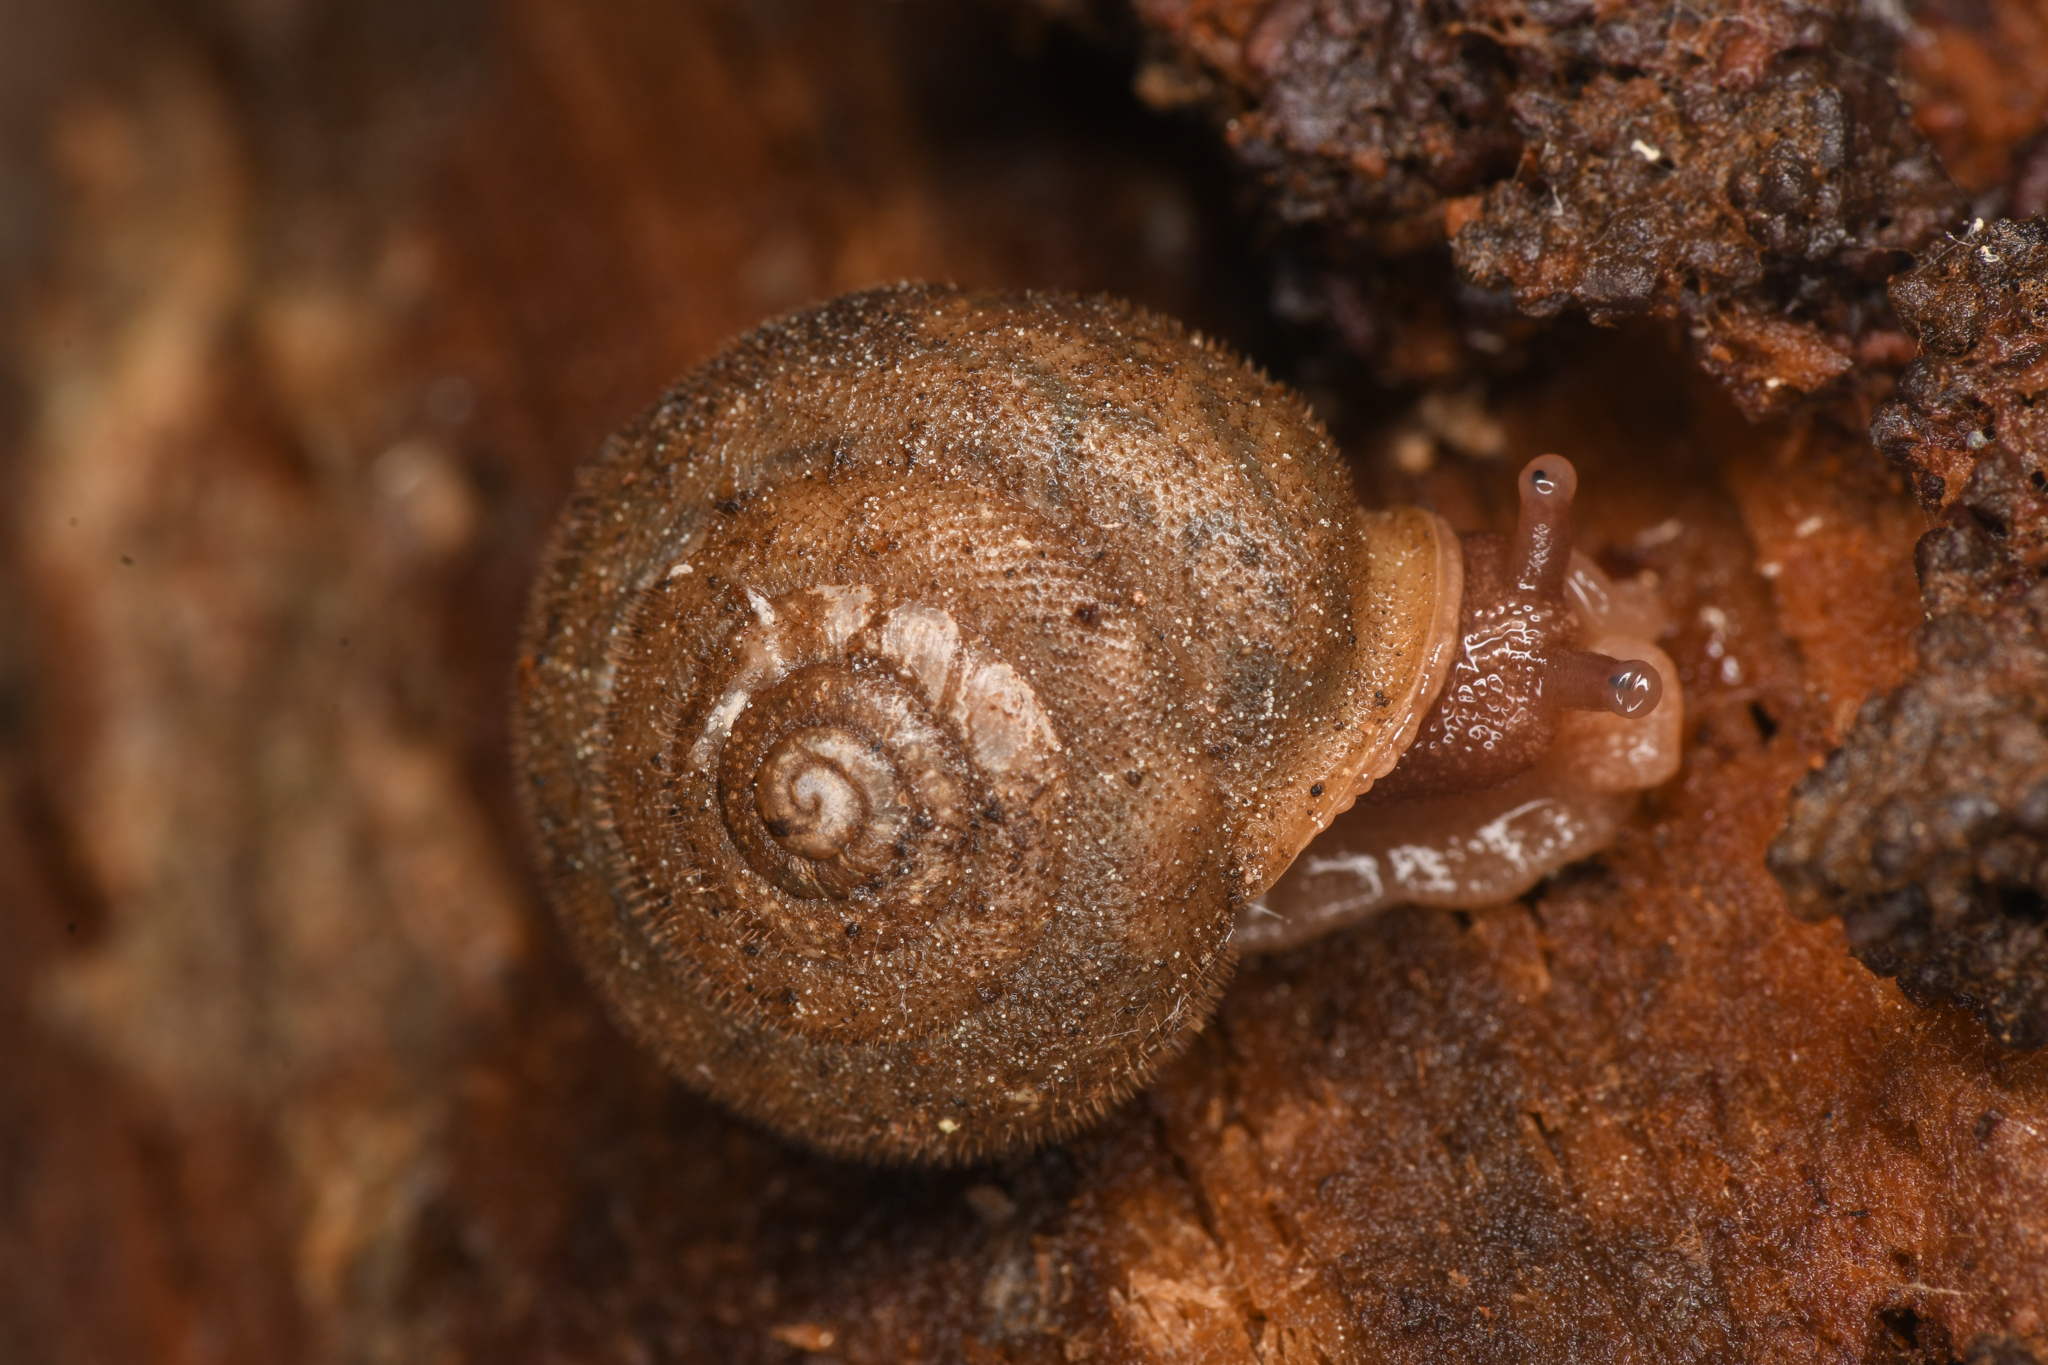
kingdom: Animalia
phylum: Mollusca
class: Gastropoda
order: Stylommatophora
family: Polygyridae
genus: Vespericola
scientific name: Vespericola pinicola
